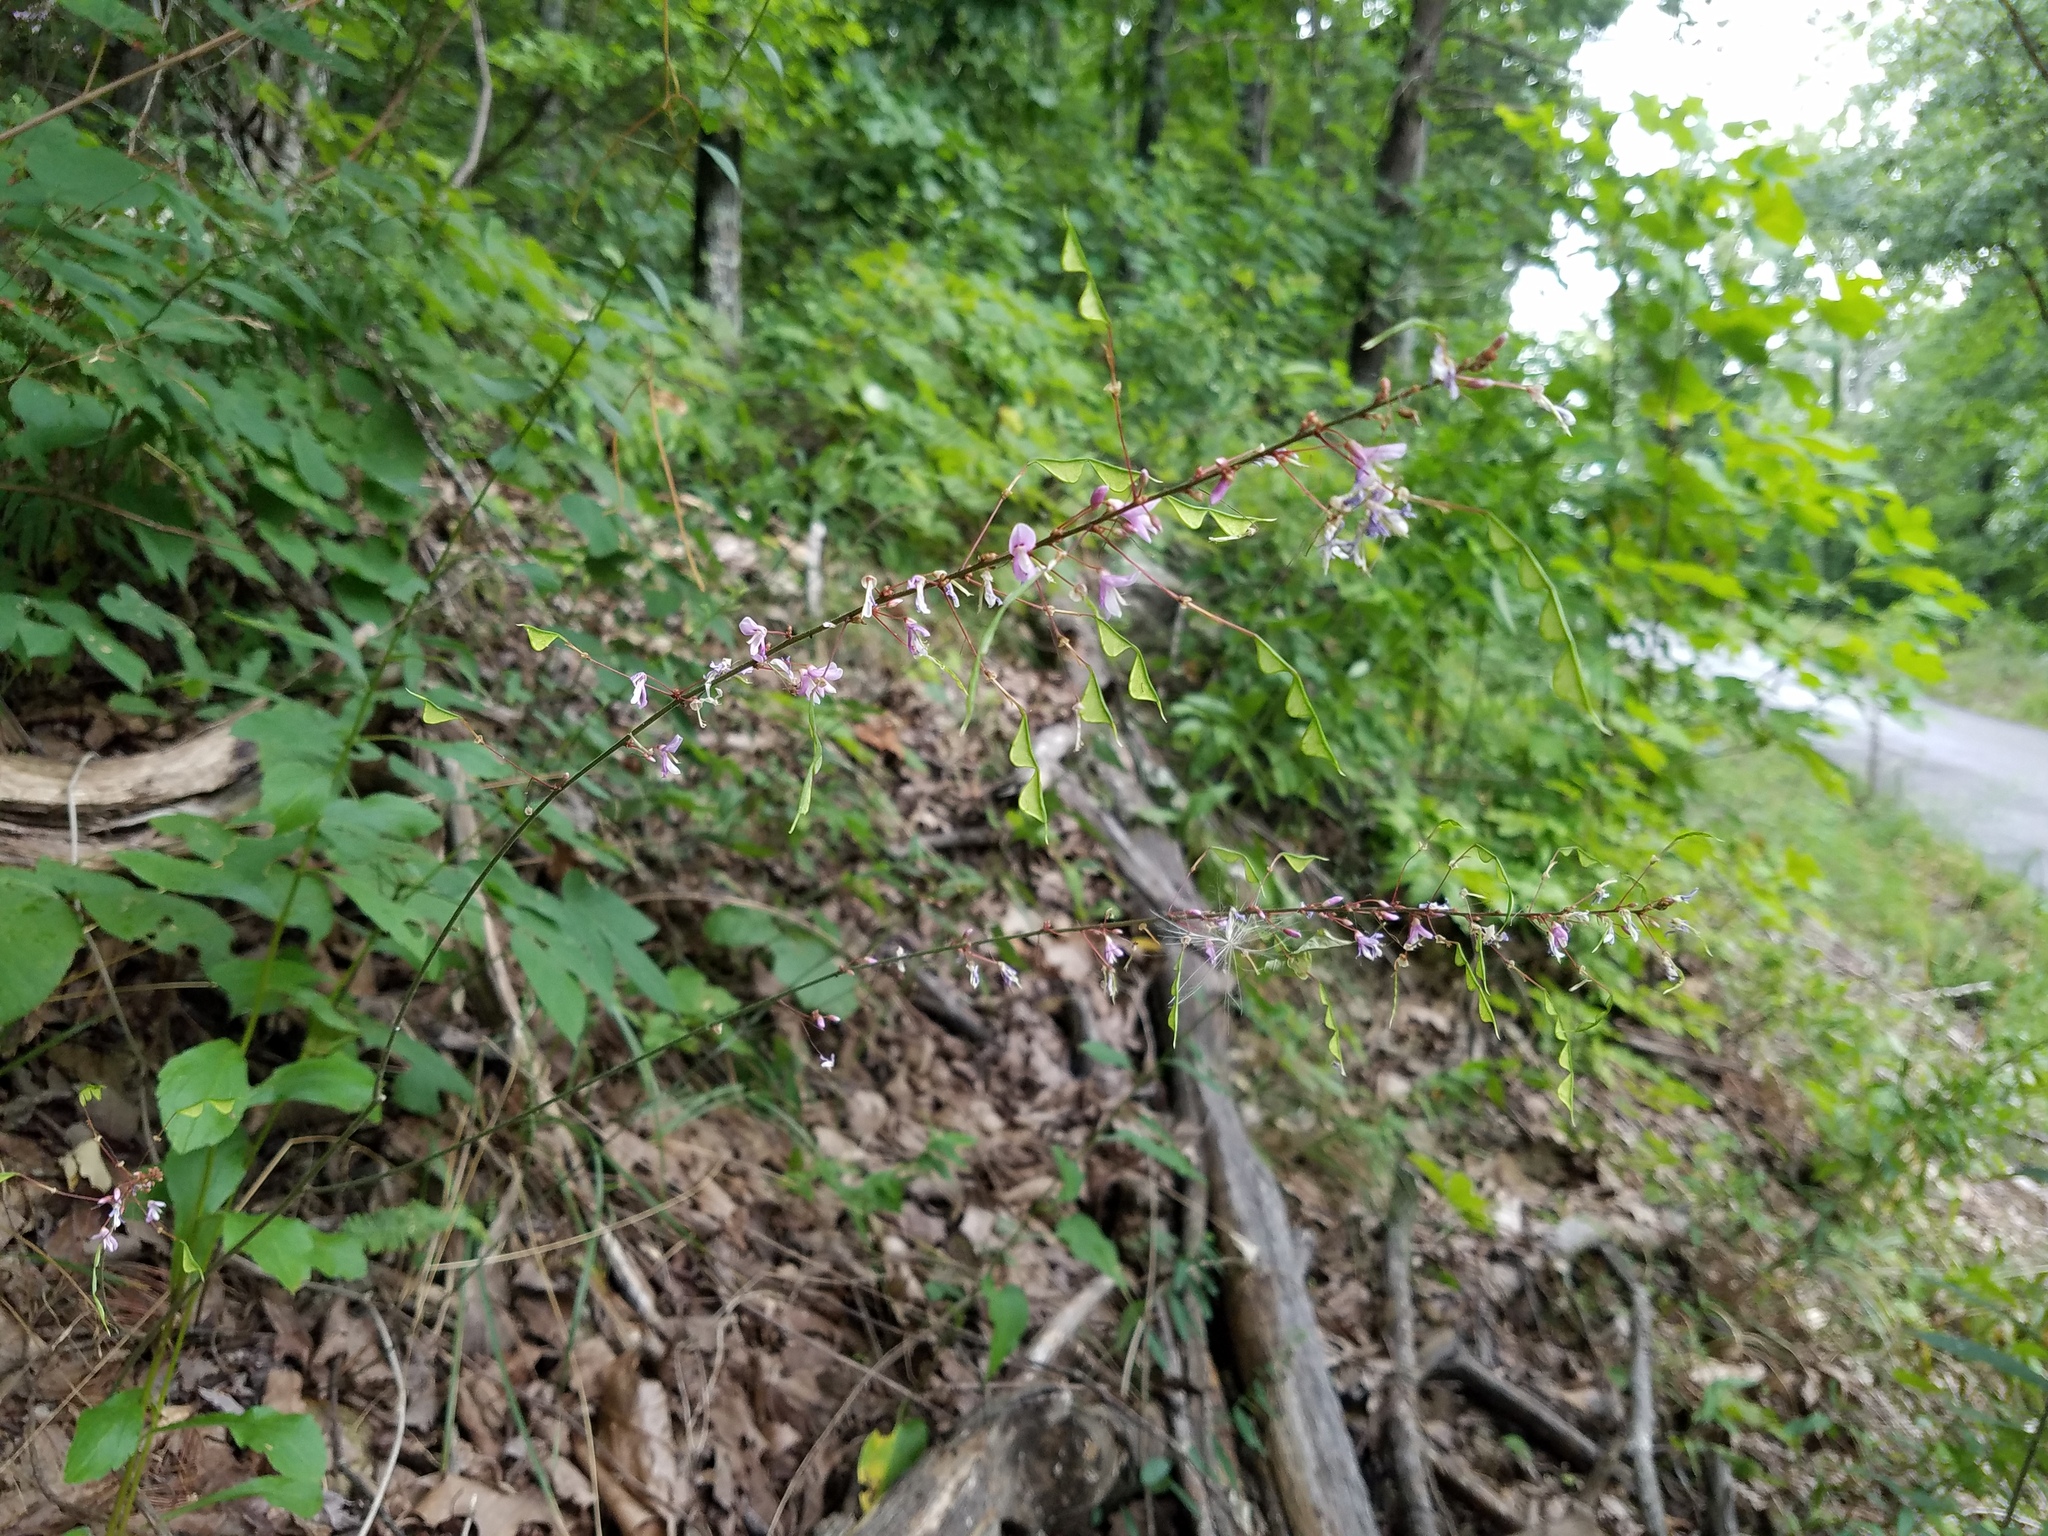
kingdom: Plantae
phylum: Tracheophyta
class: Magnoliopsida
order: Fabales
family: Fabaceae
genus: Hylodesmum
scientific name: Hylodesmum nudiflorum
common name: Bare-stemmed tick-trefoil
